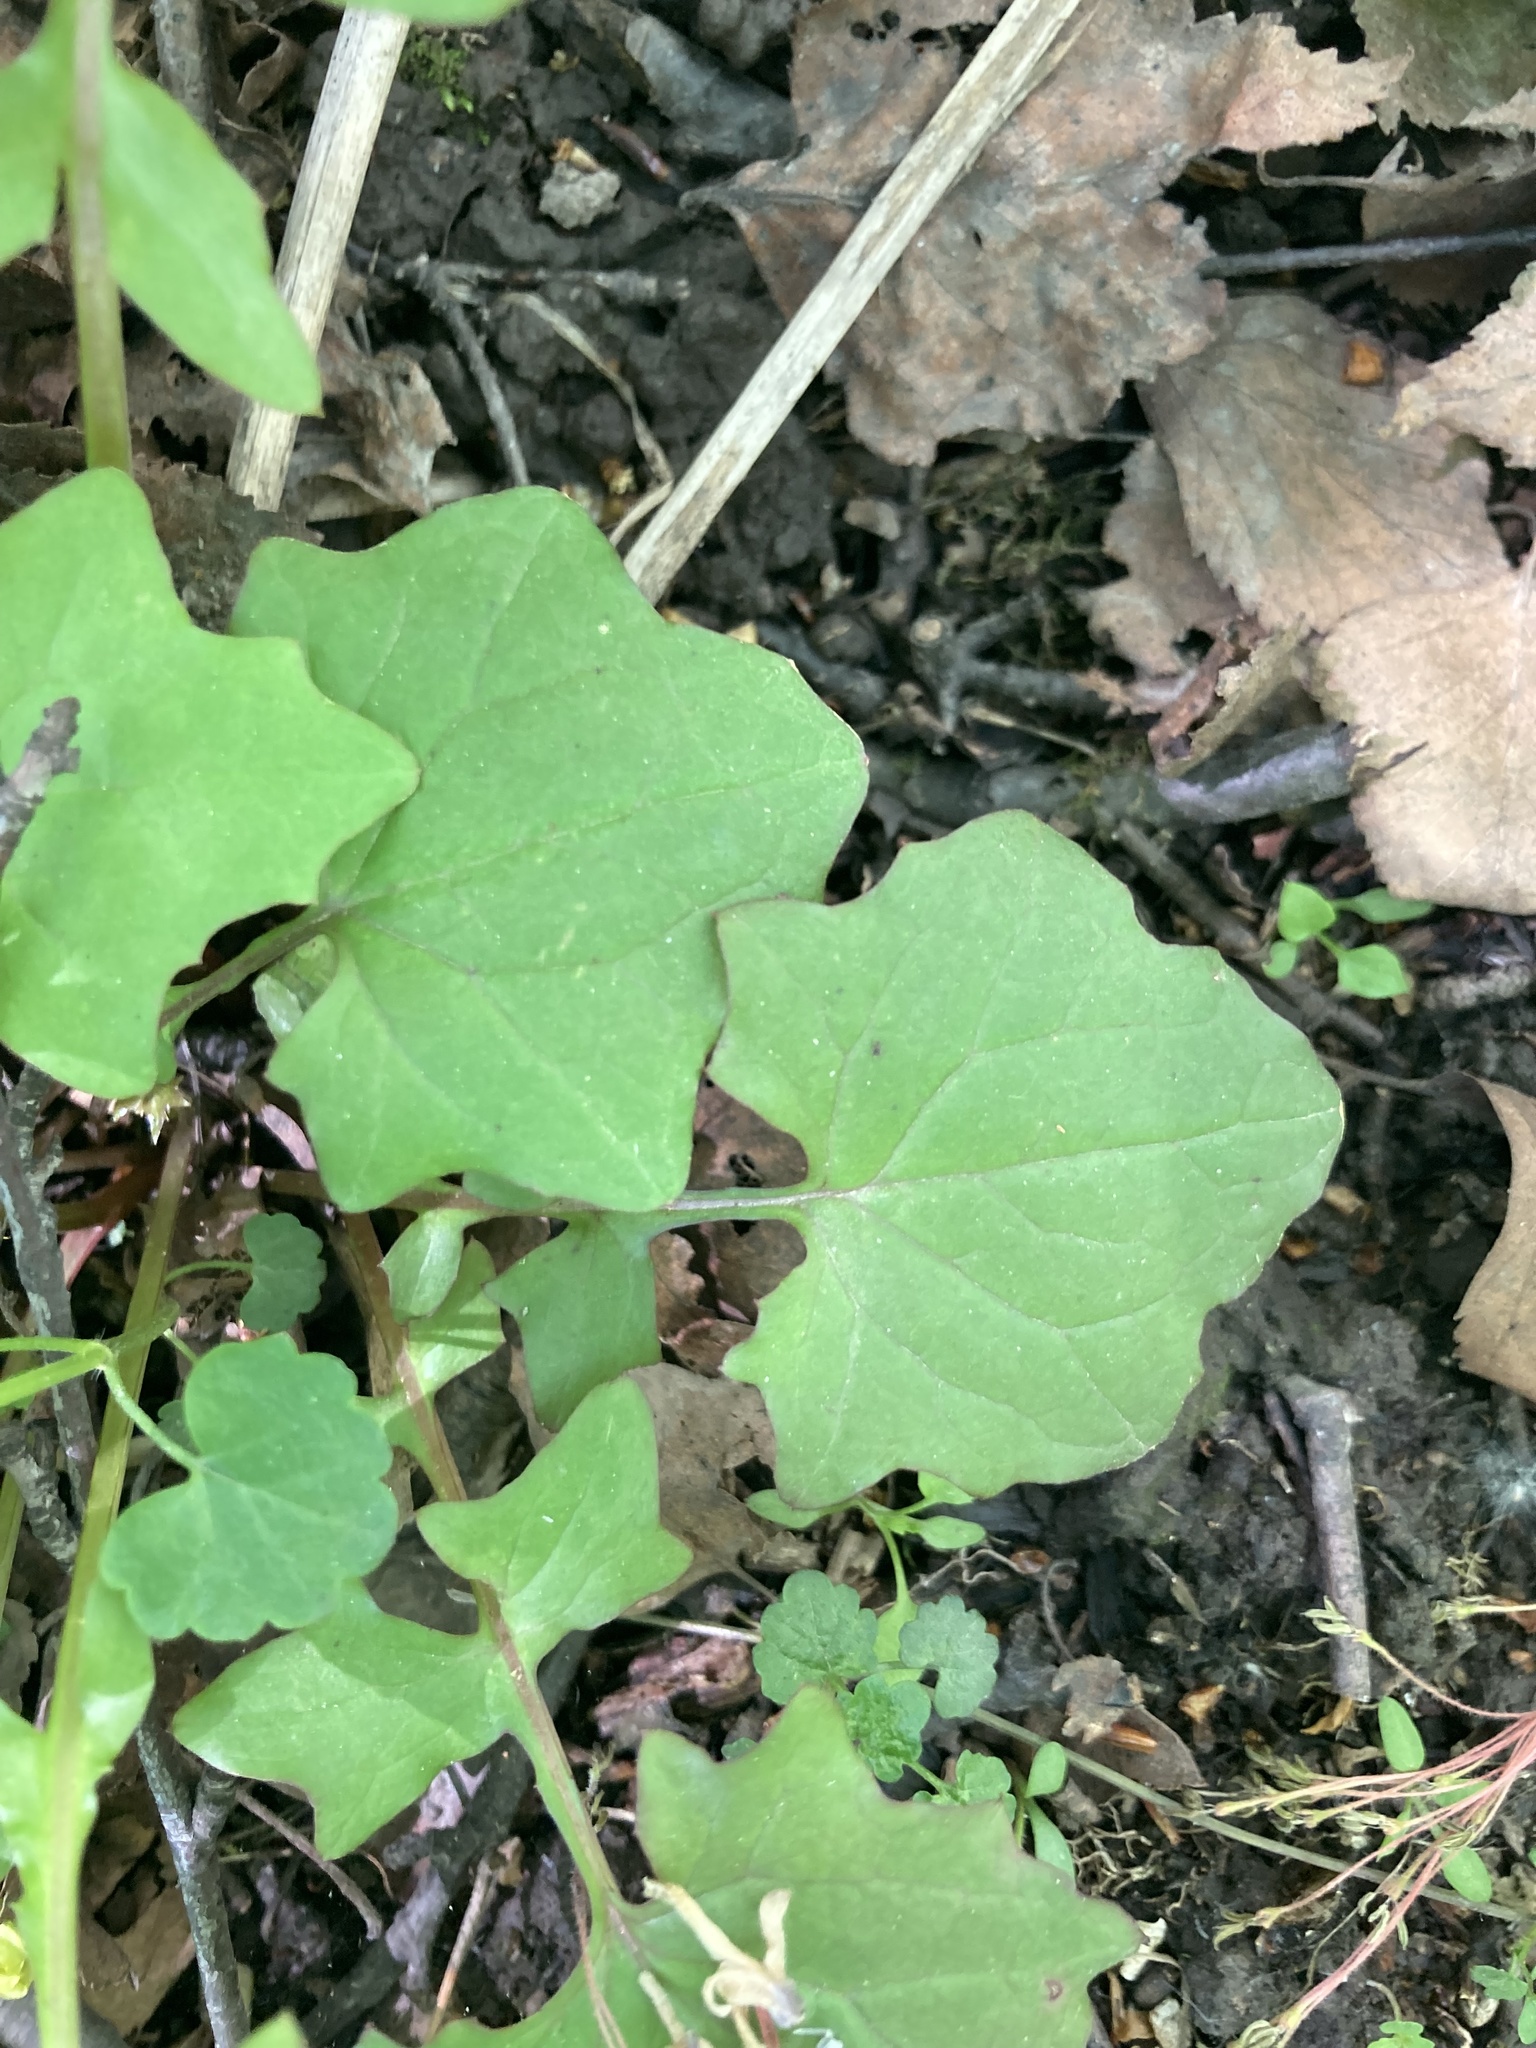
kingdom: Plantae
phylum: Tracheophyta
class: Magnoliopsida
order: Asterales
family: Asteraceae
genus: Mycelis
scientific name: Mycelis muralis
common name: Wall lettuce
